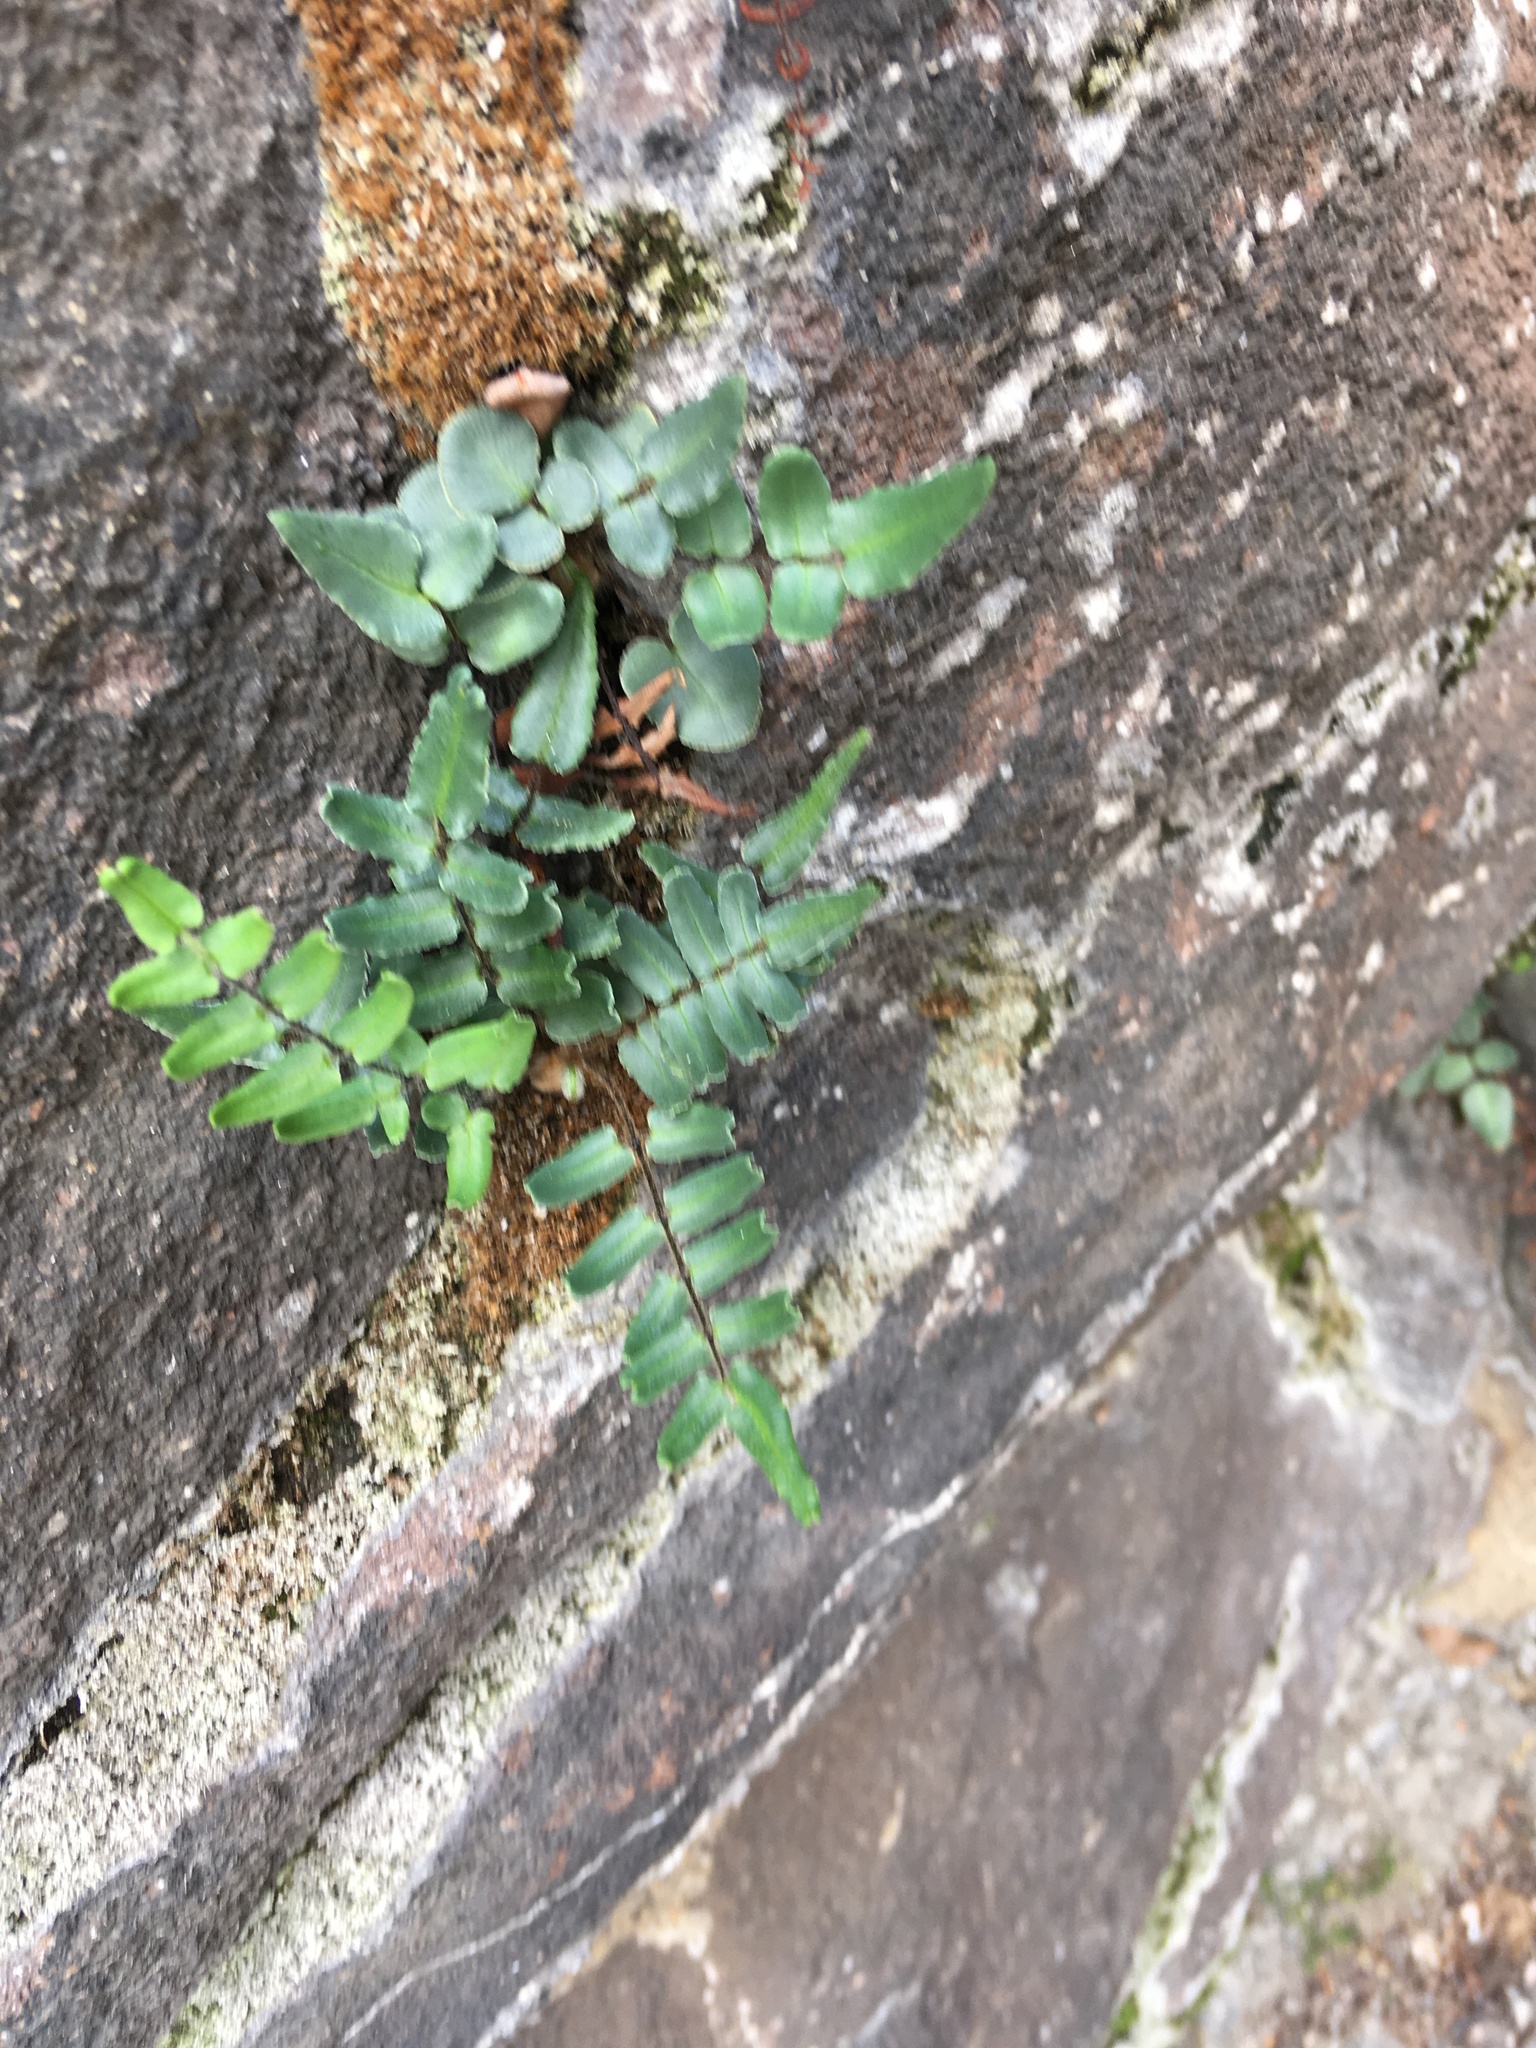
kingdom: Plantae
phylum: Tracheophyta
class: Polypodiopsida
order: Polypodiales
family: Pteridaceae
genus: Pellaea
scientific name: Pellaea atropurpurea
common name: Hairy cliffbrake
